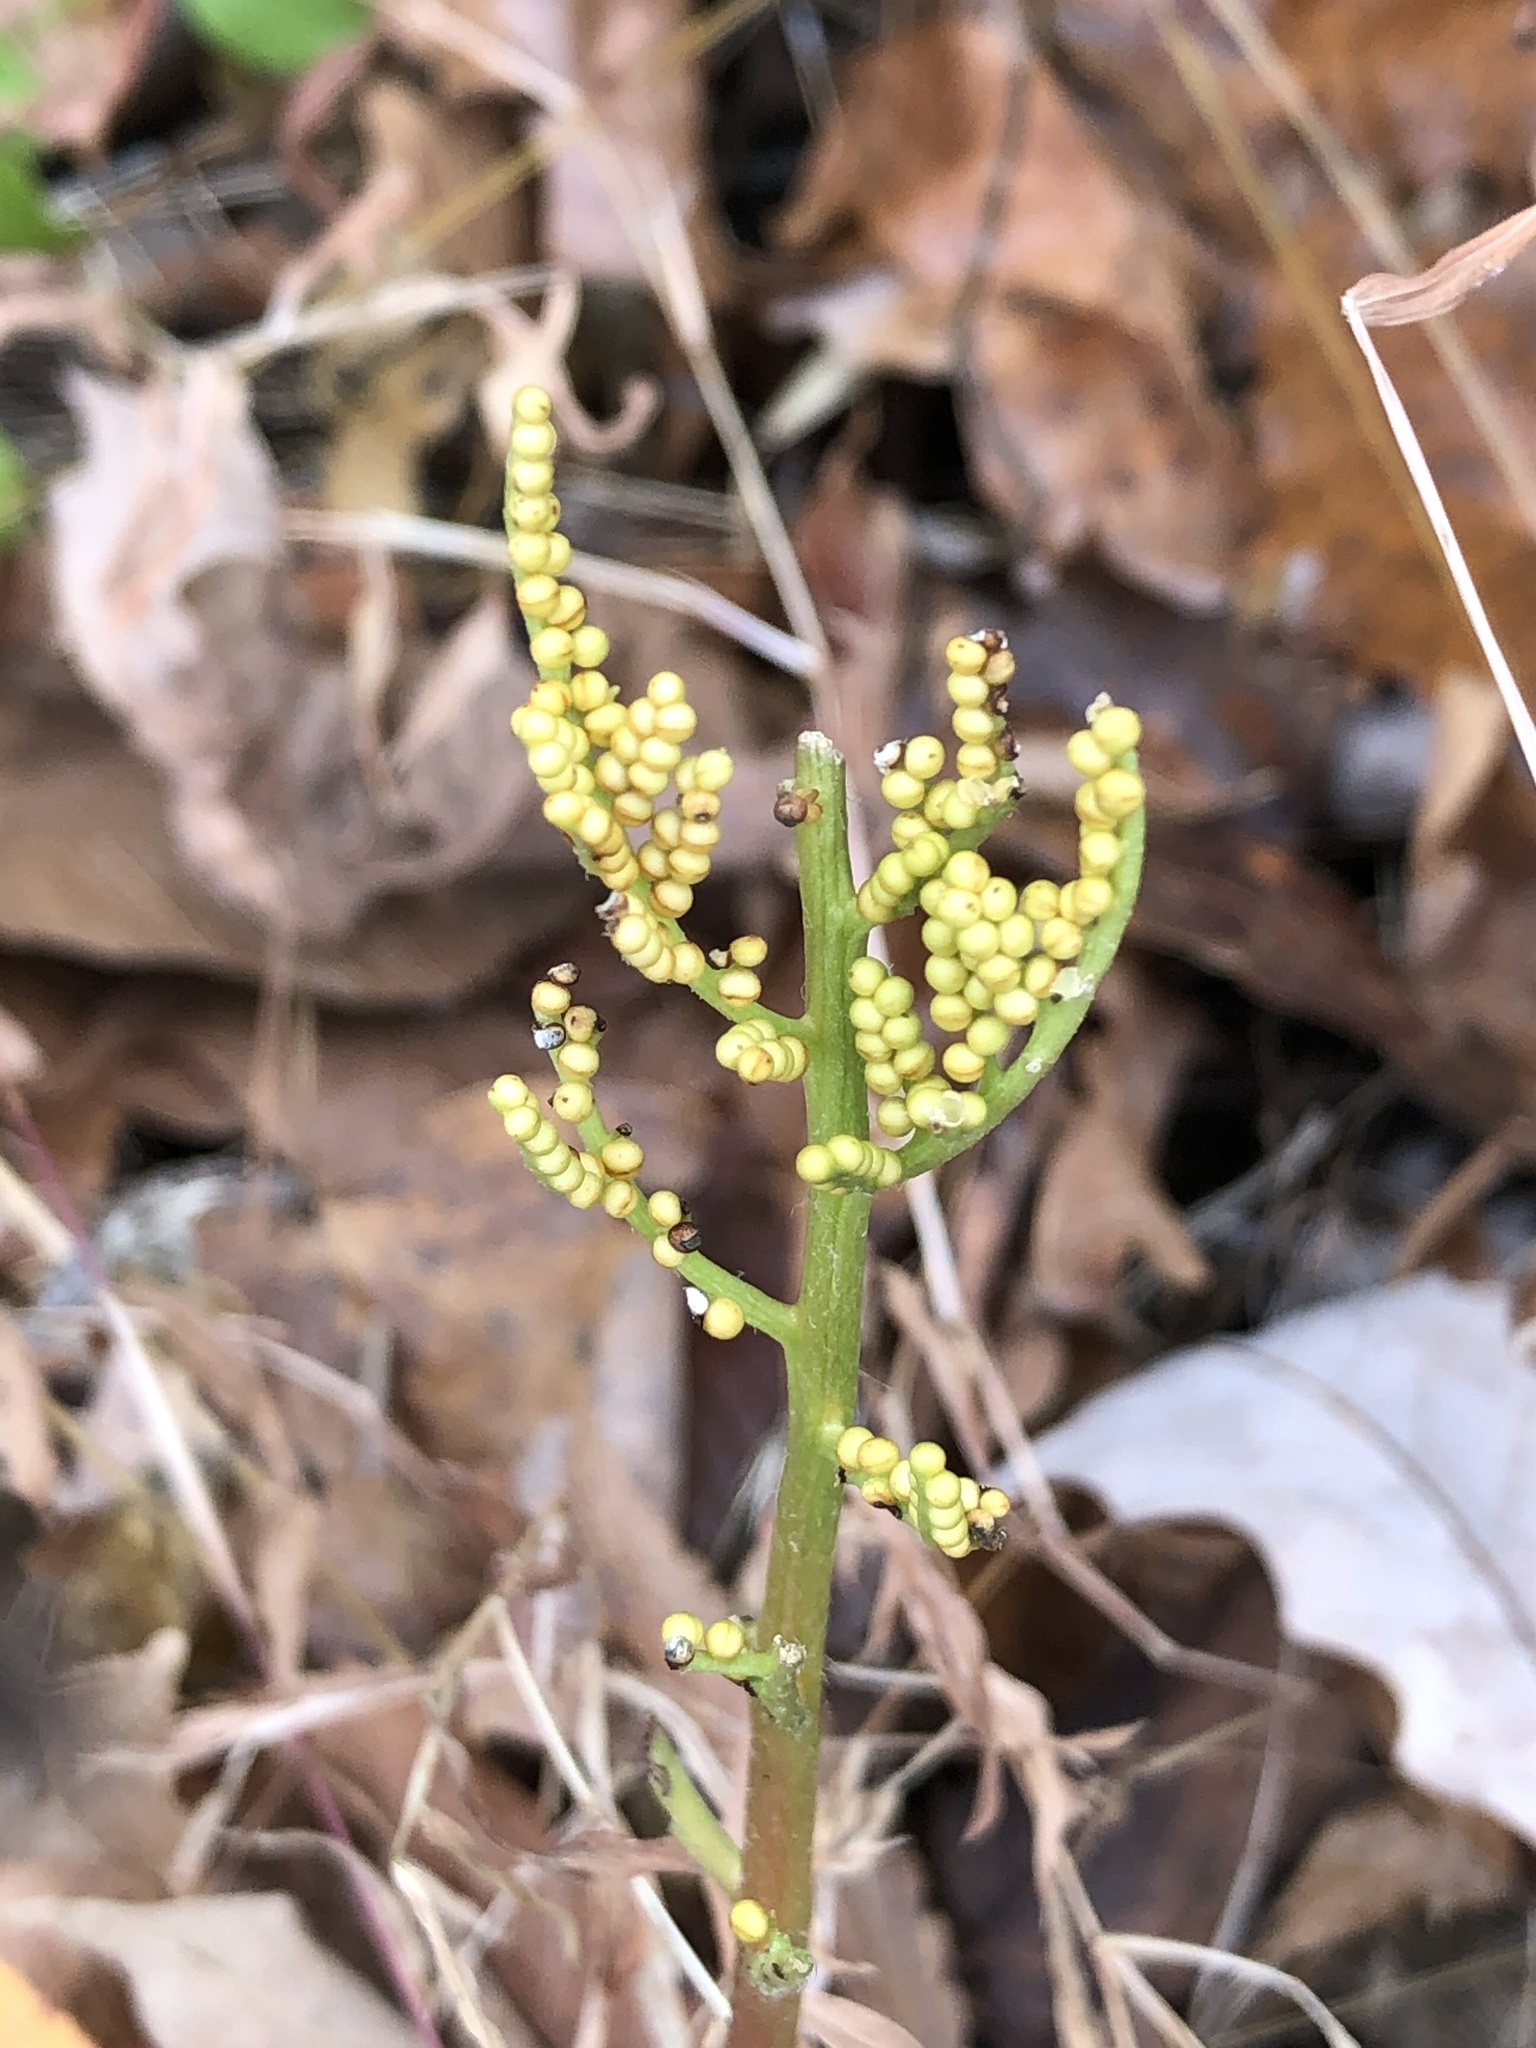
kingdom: Plantae
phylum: Tracheophyta
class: Polypodiopsida
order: Ophioglossales
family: Ophioglossaceae
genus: Sceptridium
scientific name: Sceptridium dissectum
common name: Cut-leaved grapefern
